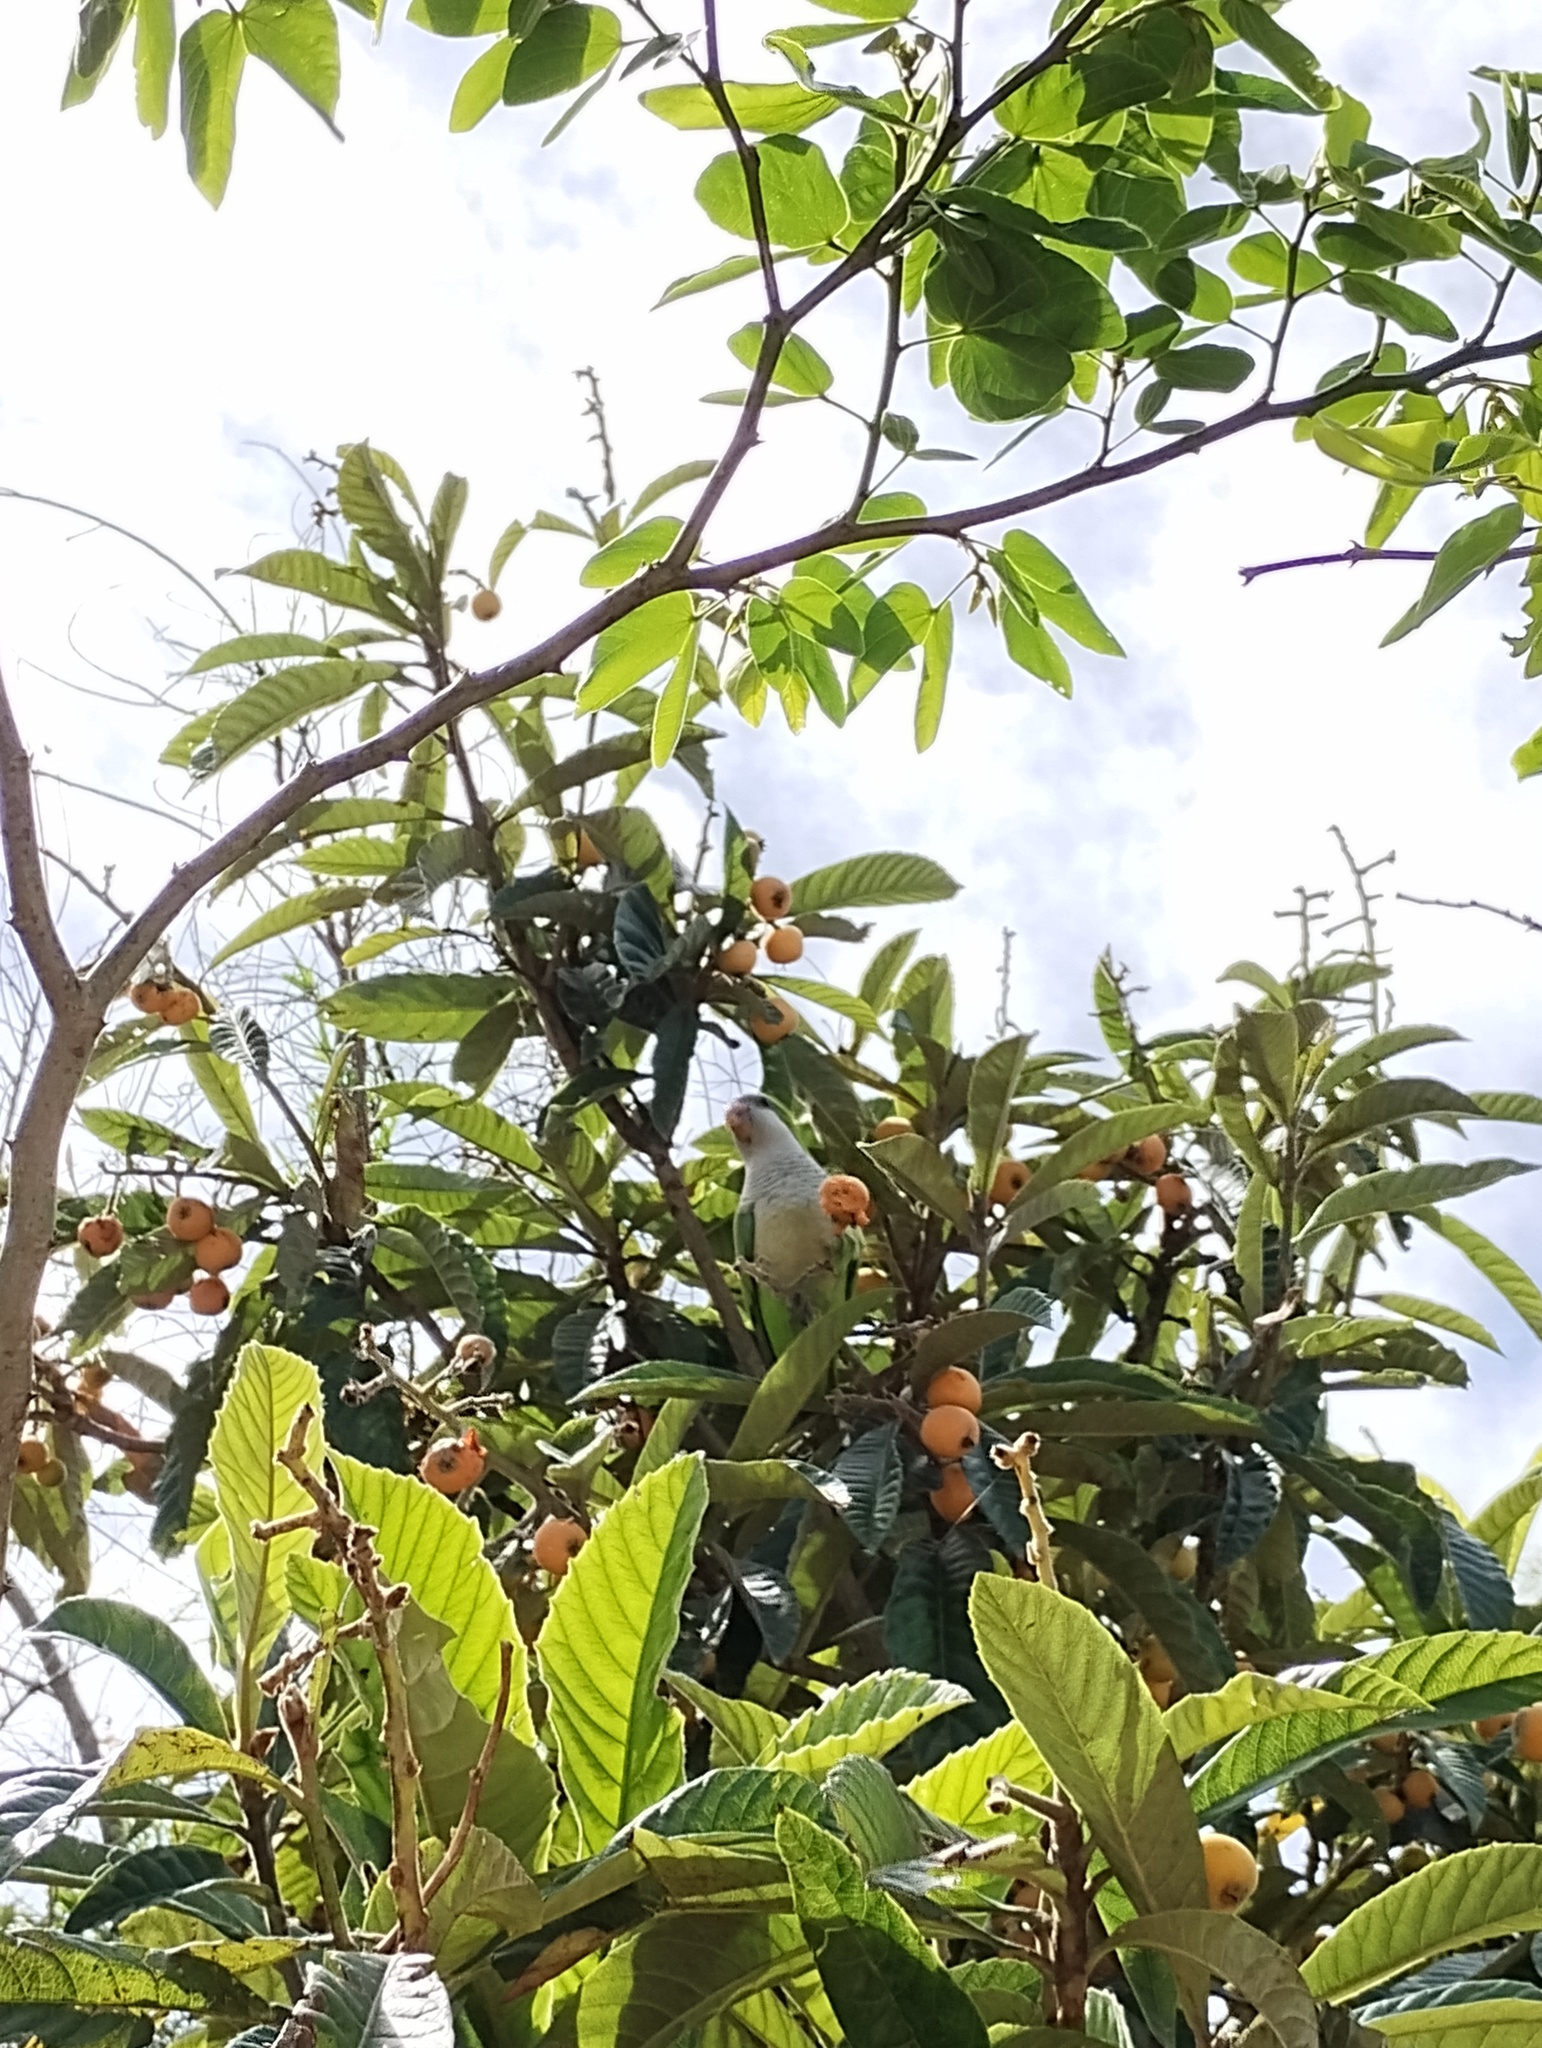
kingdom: Animalia
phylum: Chordata
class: Aves
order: Psittaciformes
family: Psittacidae
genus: Myiopsitta
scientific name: Myiopsitta monachus
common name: Monk parakeet
